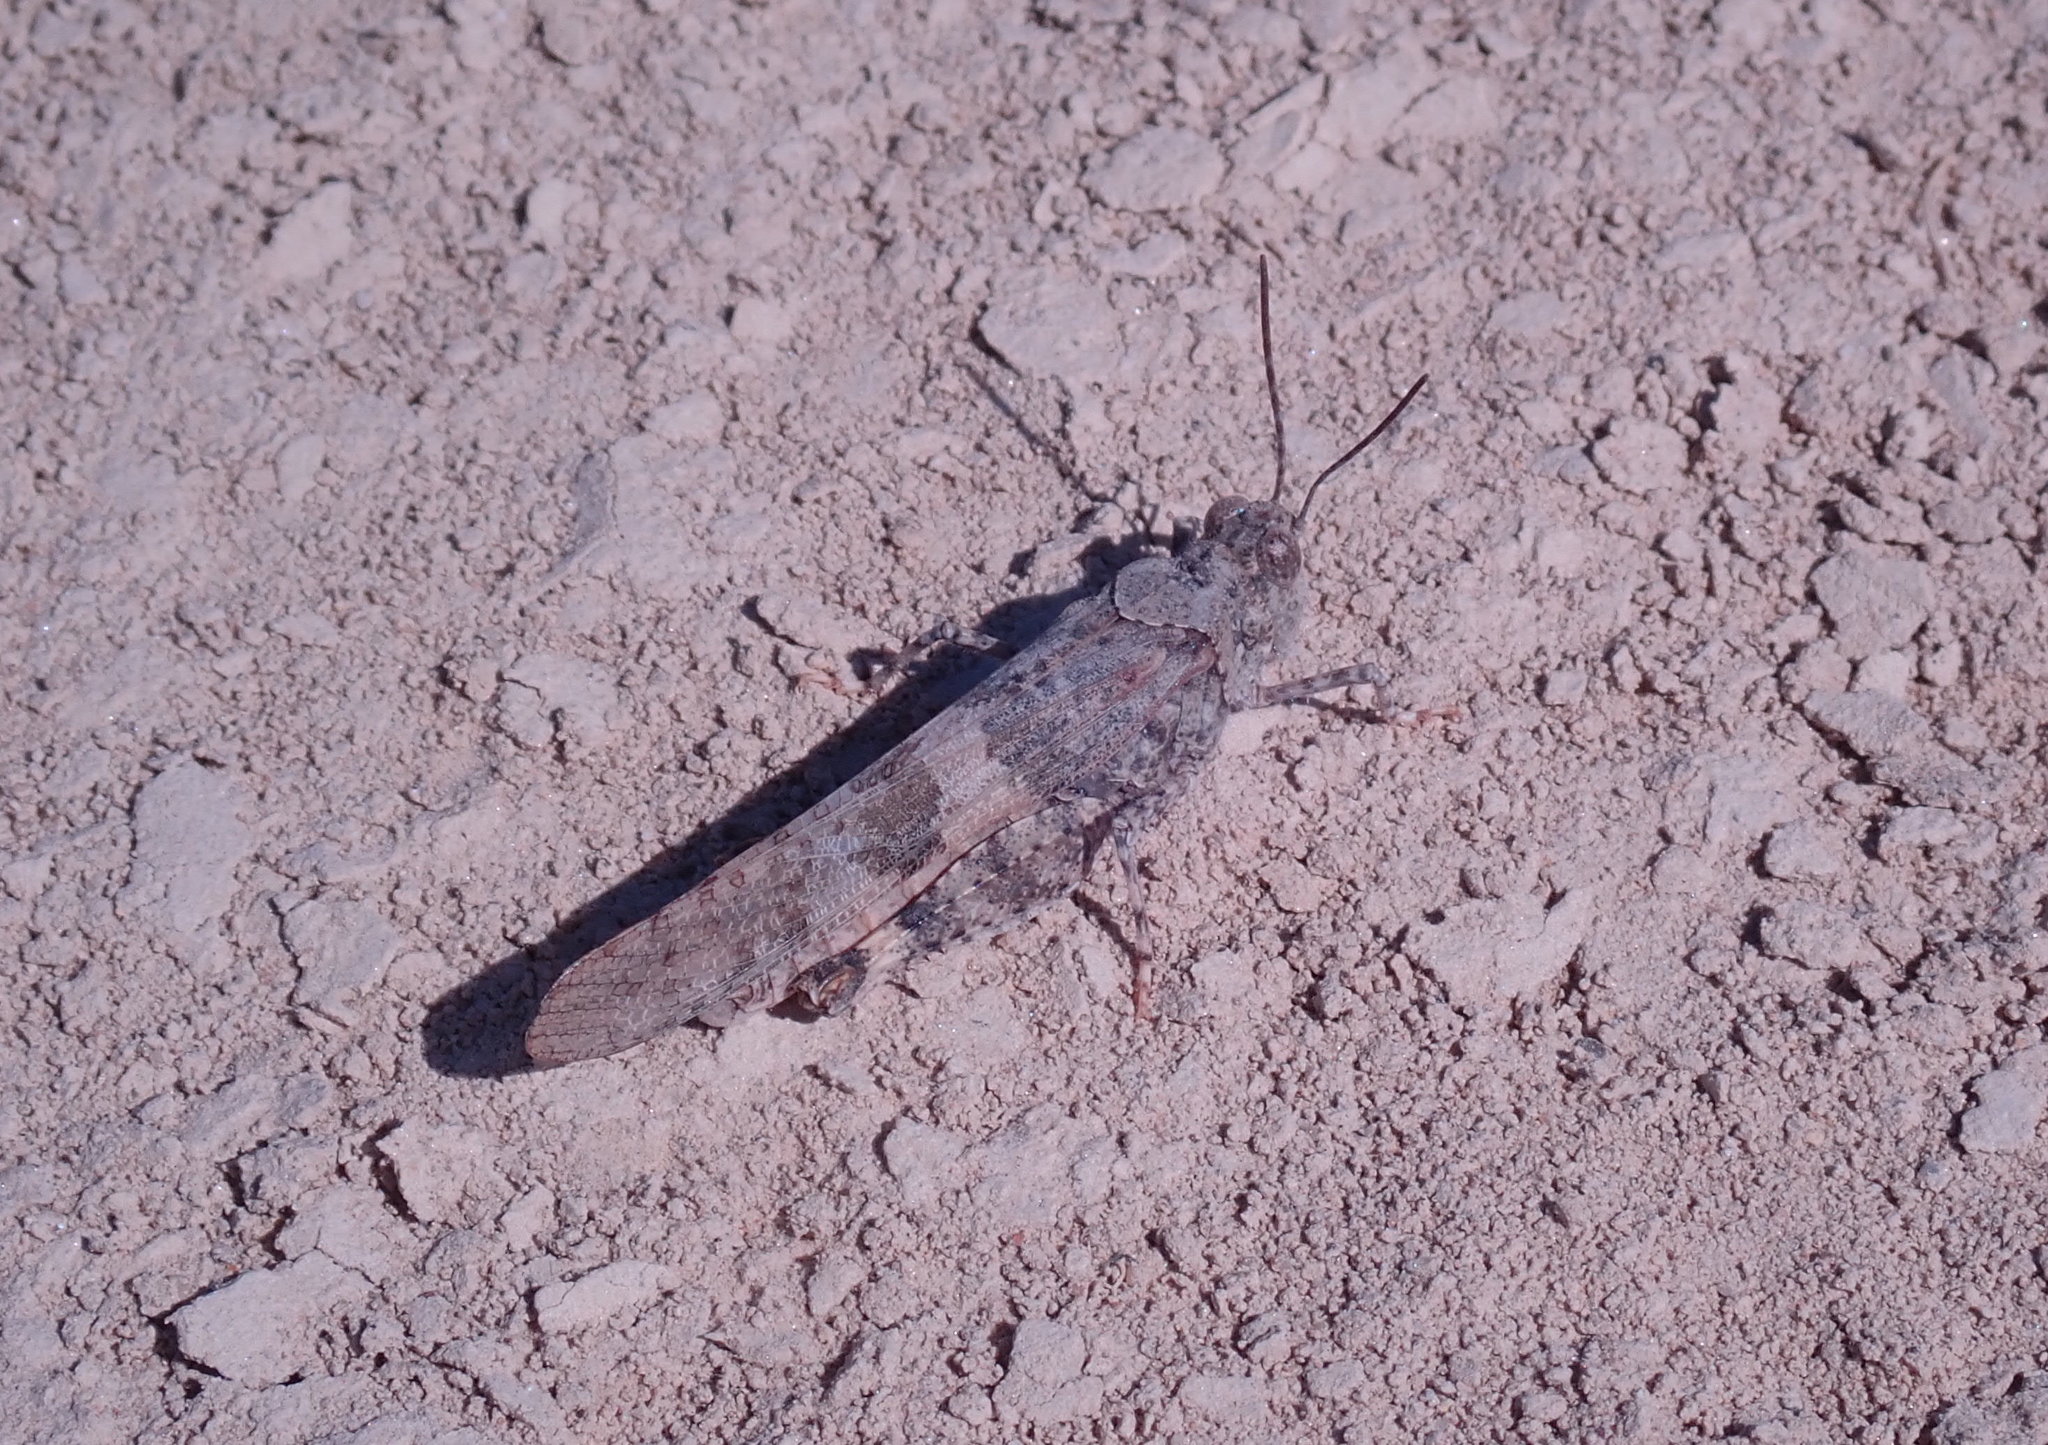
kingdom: Animalia
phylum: Arthropoda
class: Insecta
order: Orthoptera
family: Acrididae
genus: Trimerotropis
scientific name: Trimerotropis pallidipennis
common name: Pallid-winged grasshopper
